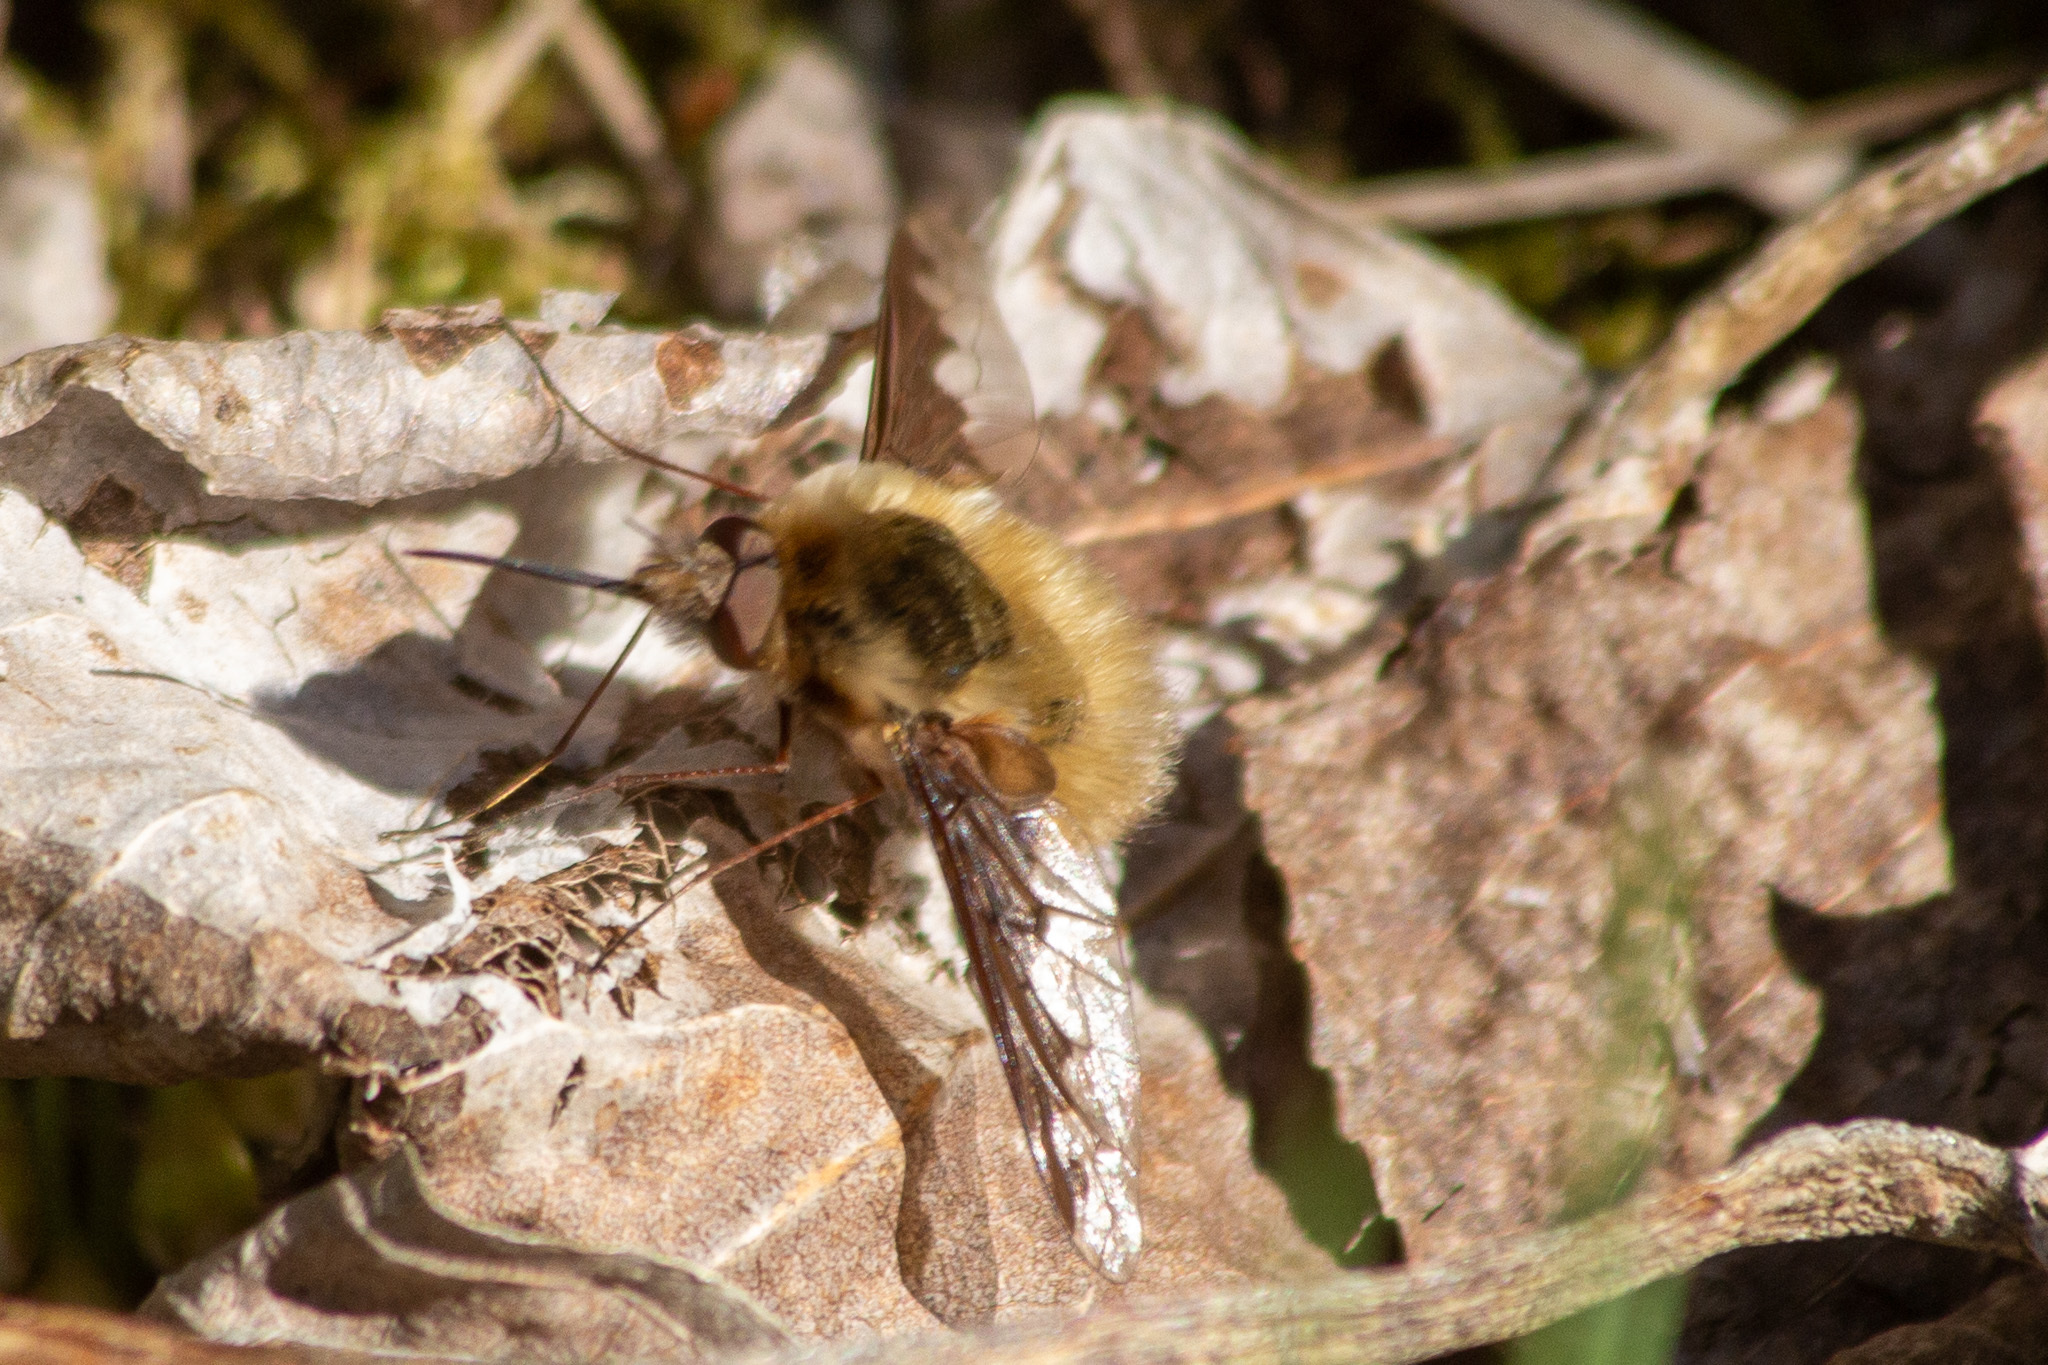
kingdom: Animalia
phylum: Arthropoda
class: Insecta
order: Diptera
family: Bombyliidae
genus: Bombylius
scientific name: Bombylius major
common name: Bee fly
